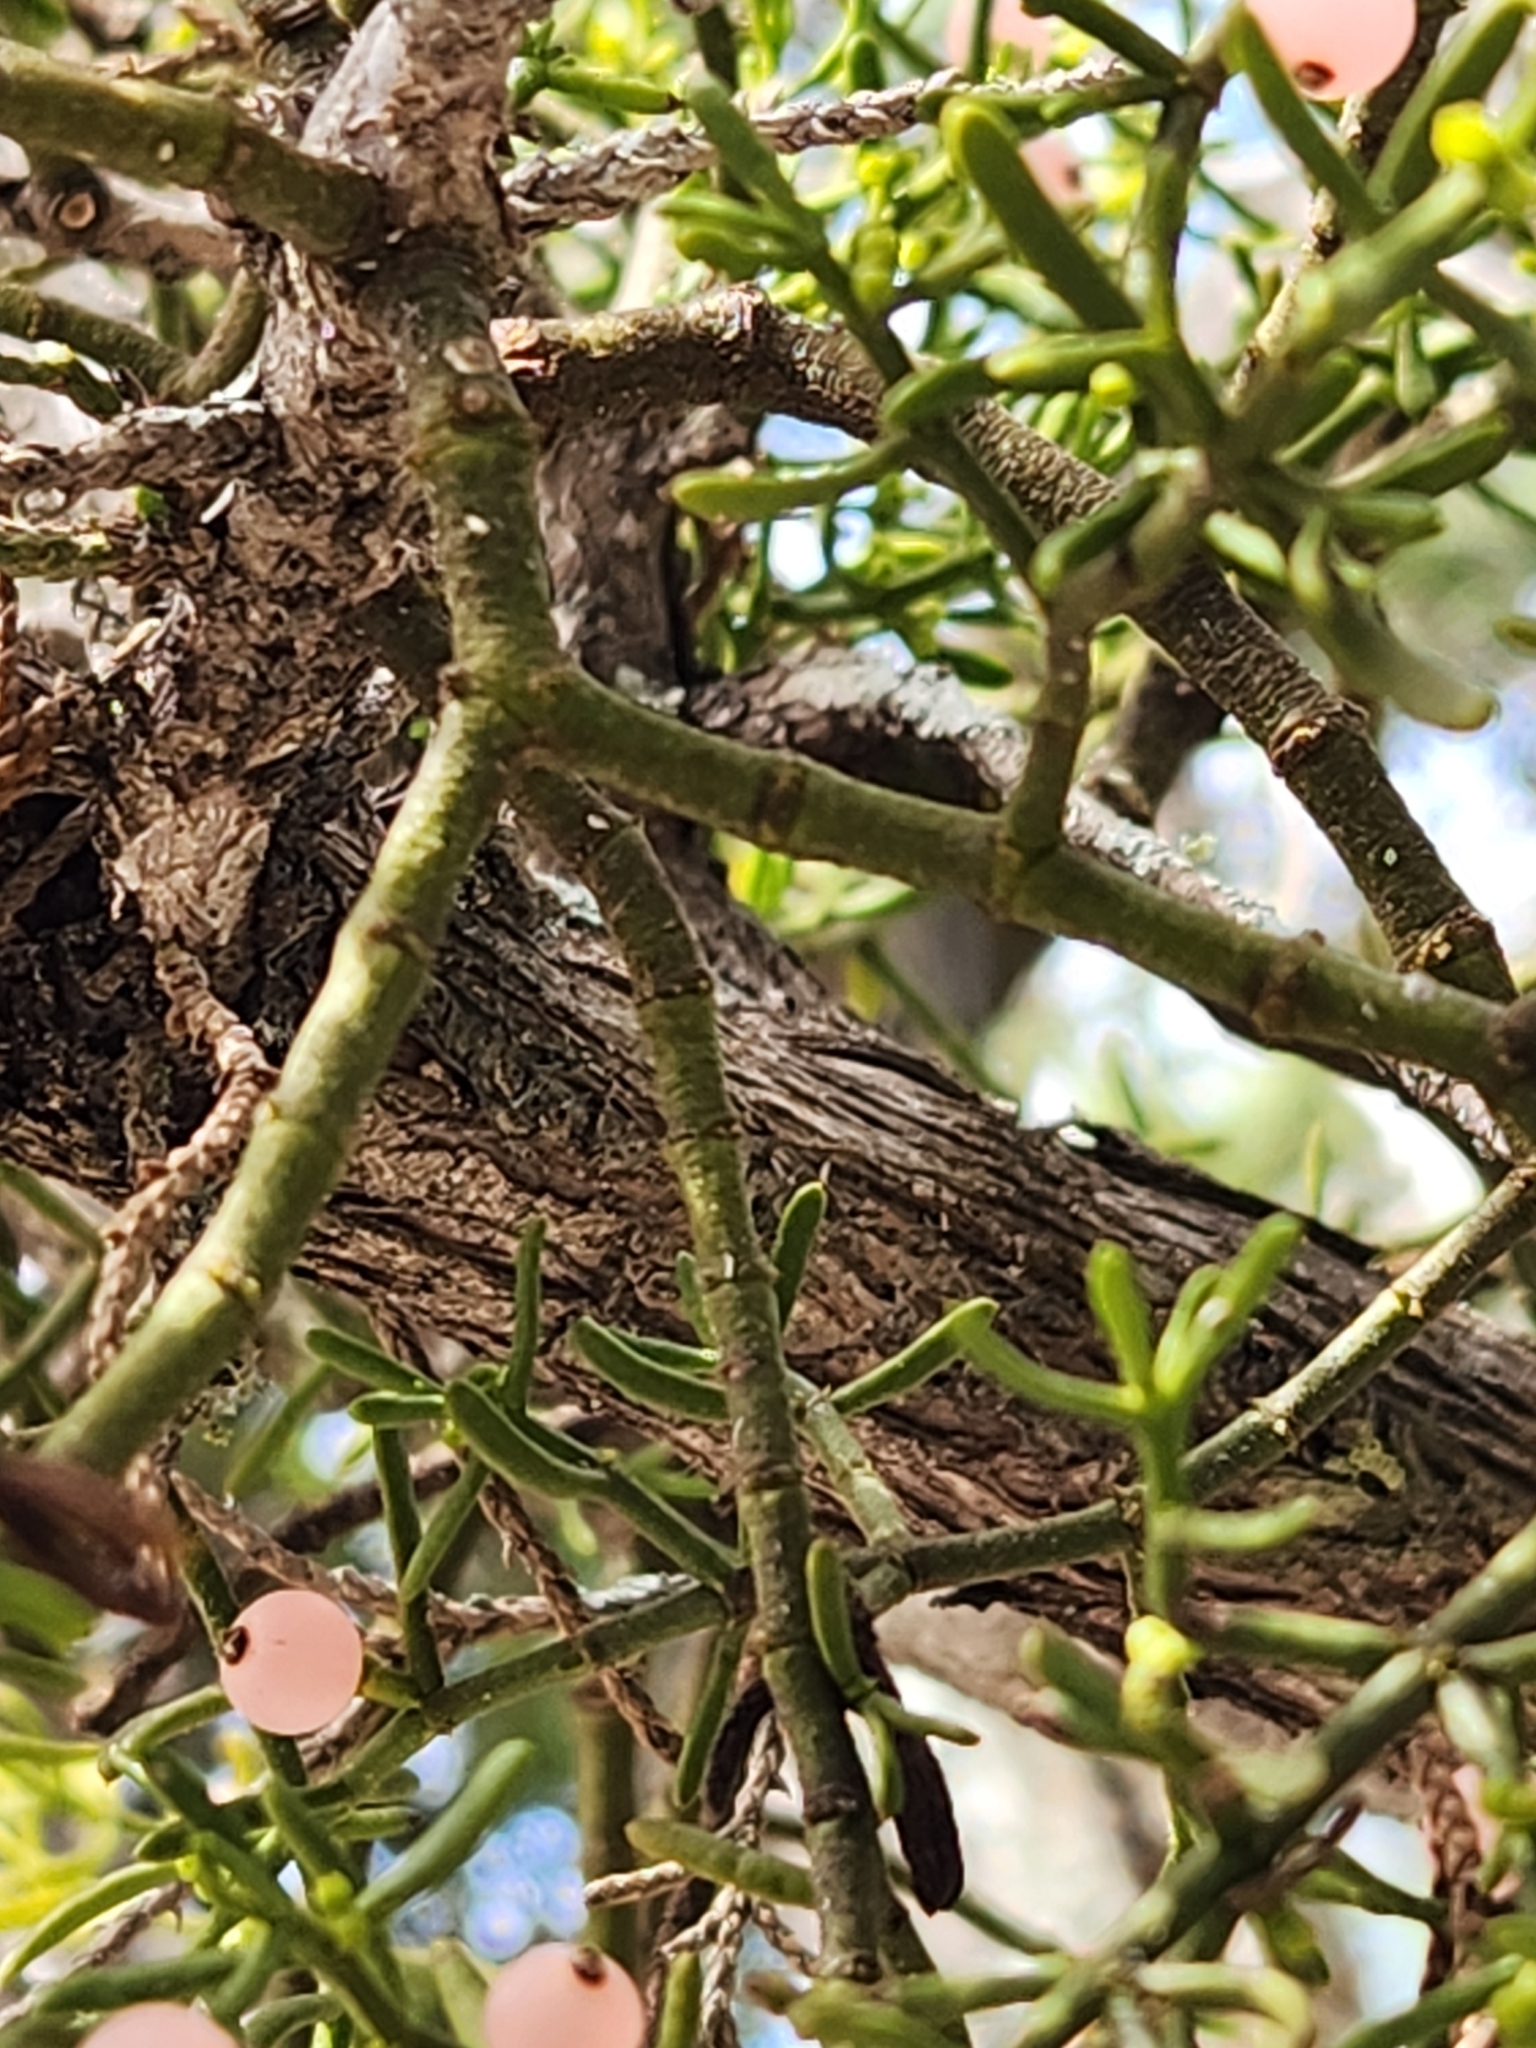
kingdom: Plantae
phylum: Tracheophyta
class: Magnoliopsida
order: Santalales
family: Viscaceae
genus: Phoradendron
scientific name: Phoradendron hawksworthii
